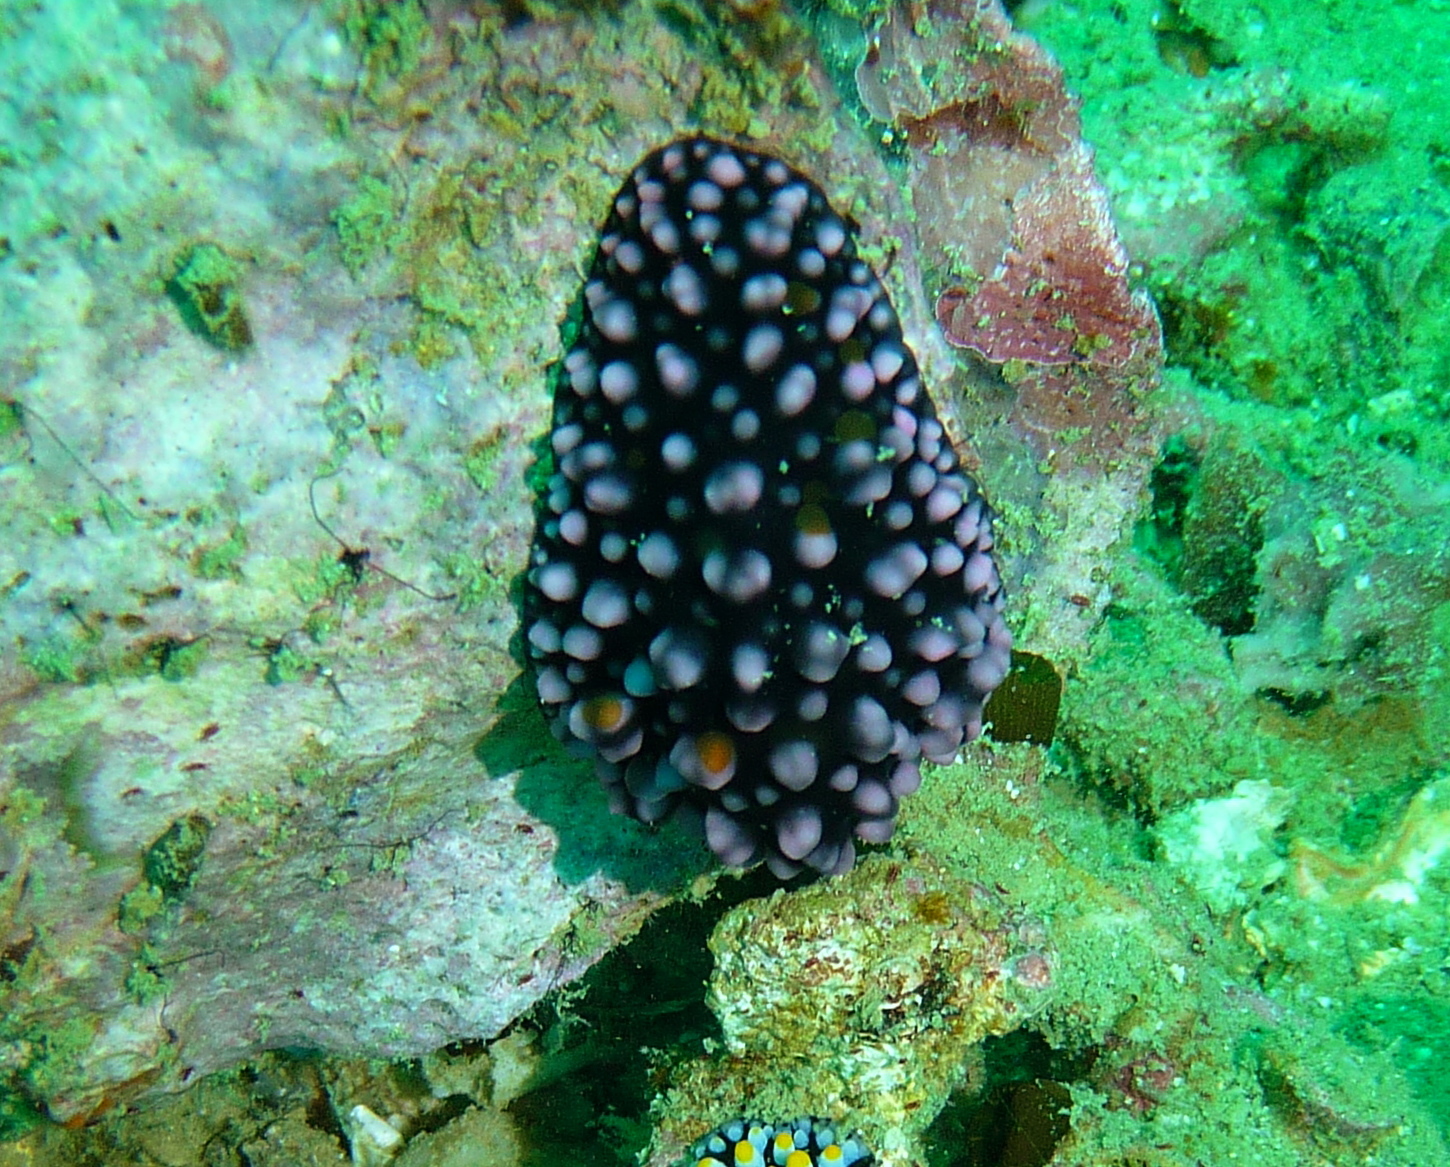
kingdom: Animalia
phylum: Mollusca
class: Gastropoda
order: Nudibranchia
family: Phyllidiidae
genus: Phyllidiella
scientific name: Phyllidiella nigra
